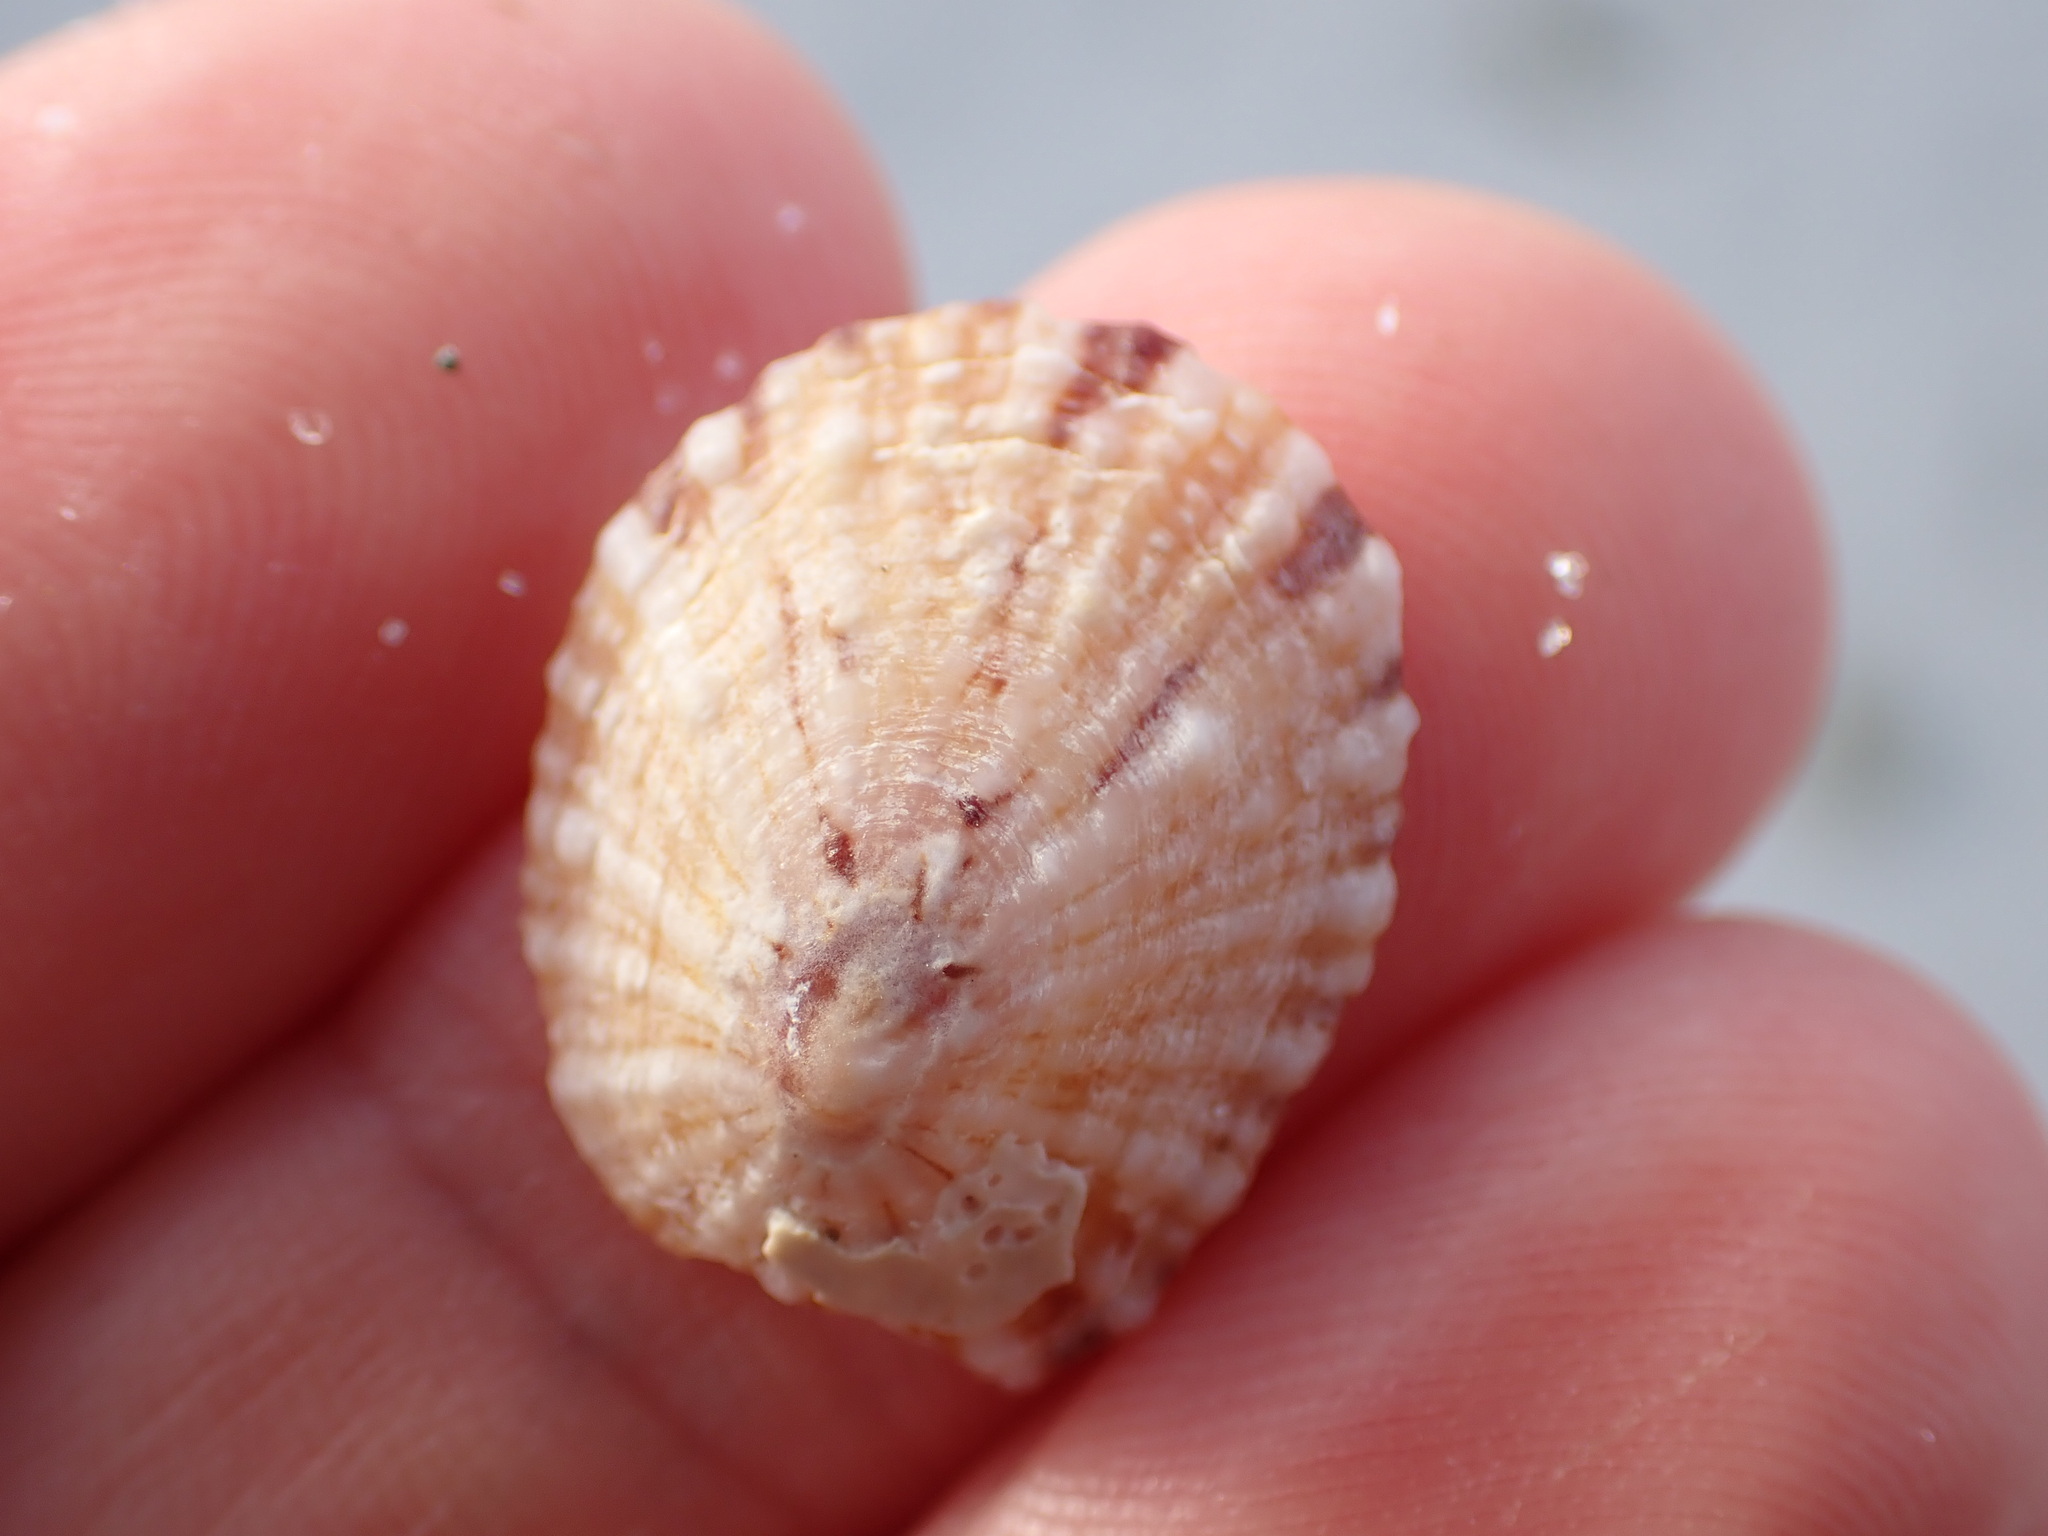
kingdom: Animalia
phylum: Mollusca
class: Gastropoda
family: Nacellidae
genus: Cellana
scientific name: Cellana stellifera
